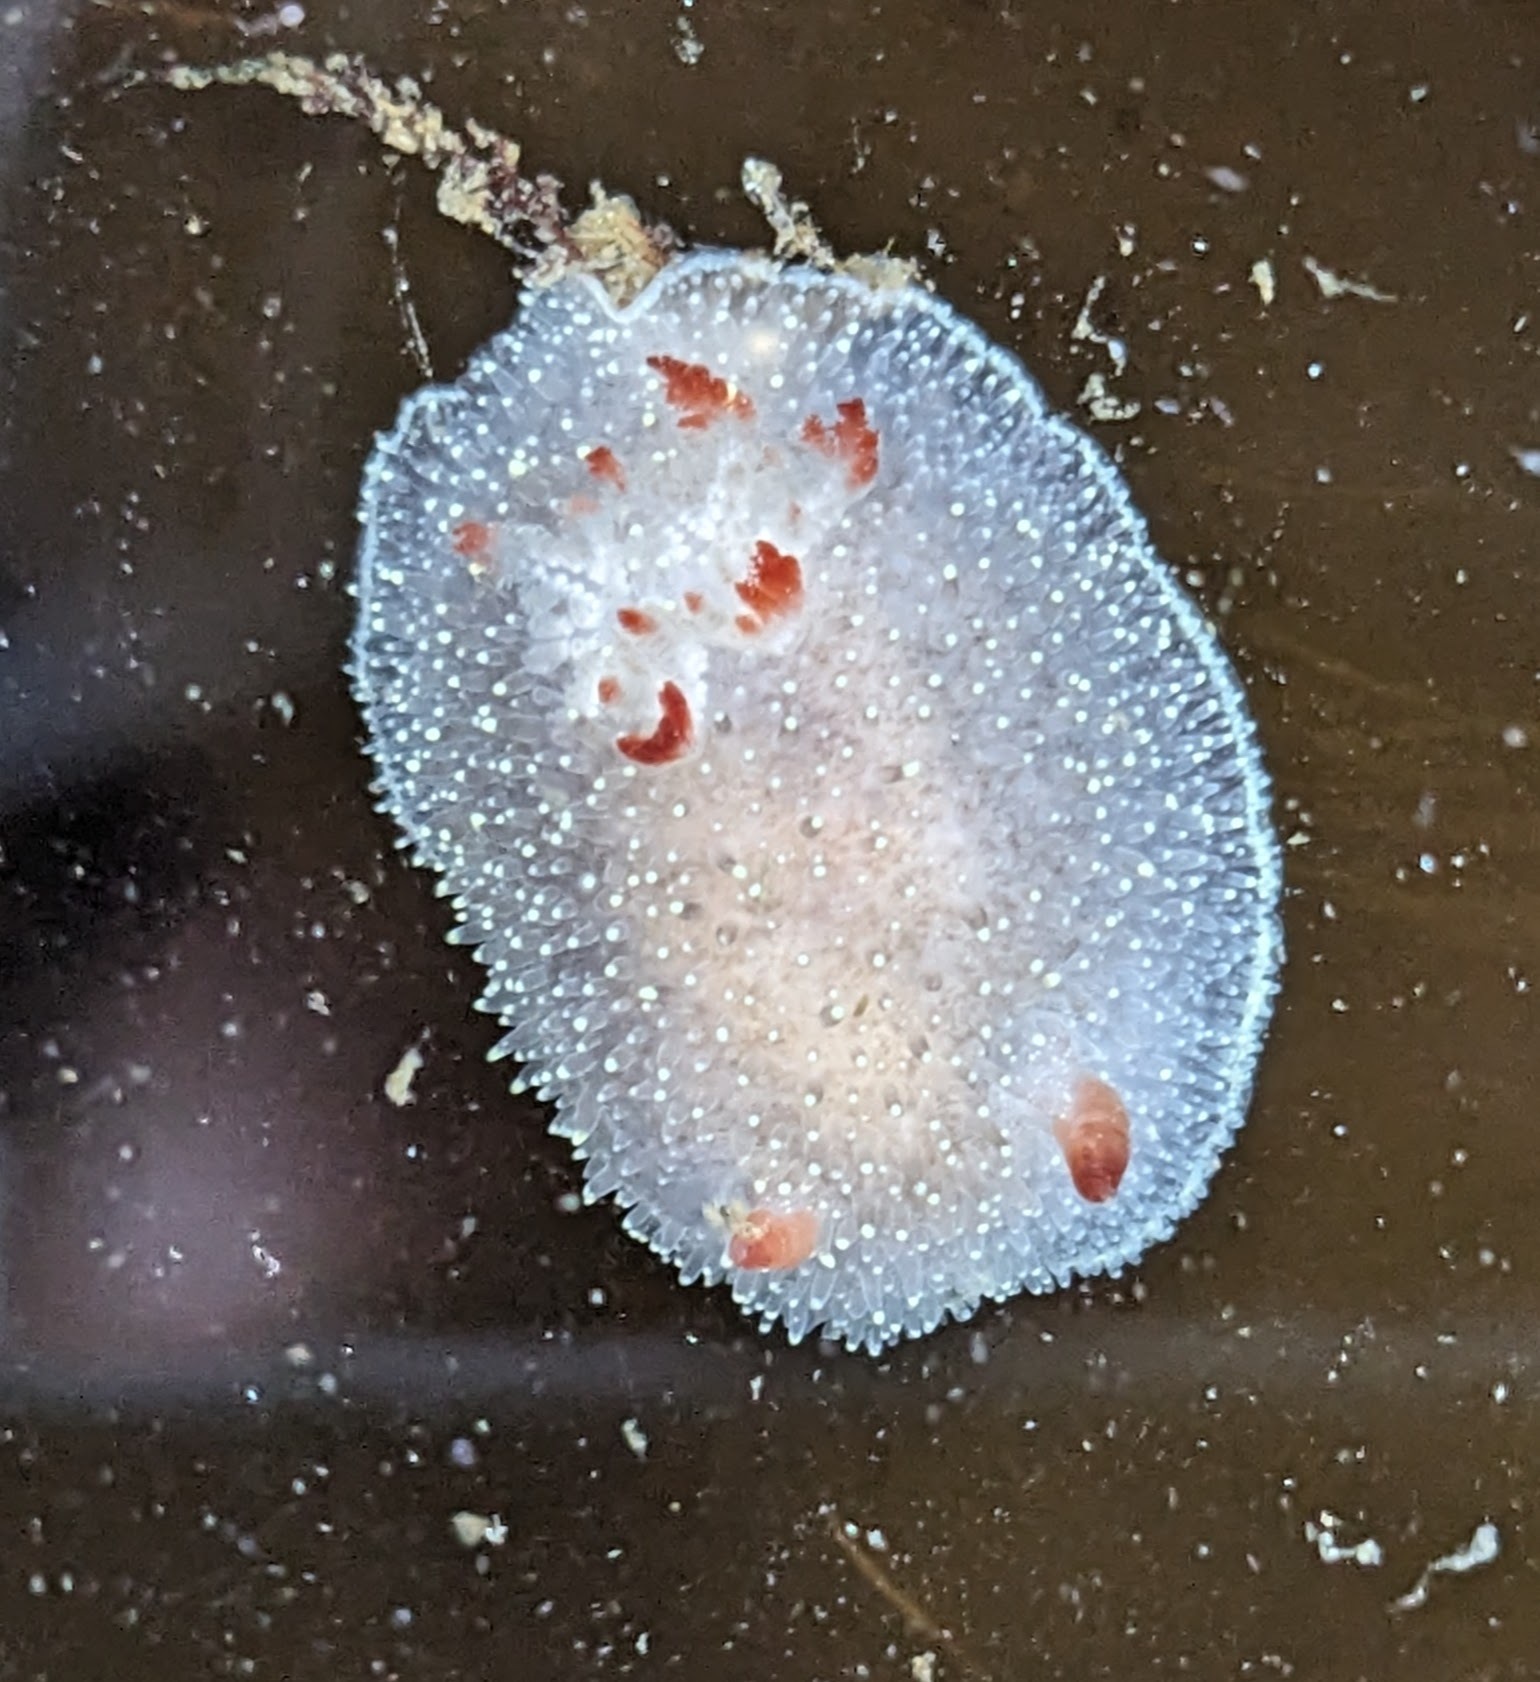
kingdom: Animalia
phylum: Mollusca
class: Gastropoda
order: Nudibranchia
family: Onchidorididae
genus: Acanthodoris
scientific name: Acanthodoris nanaimoensis
